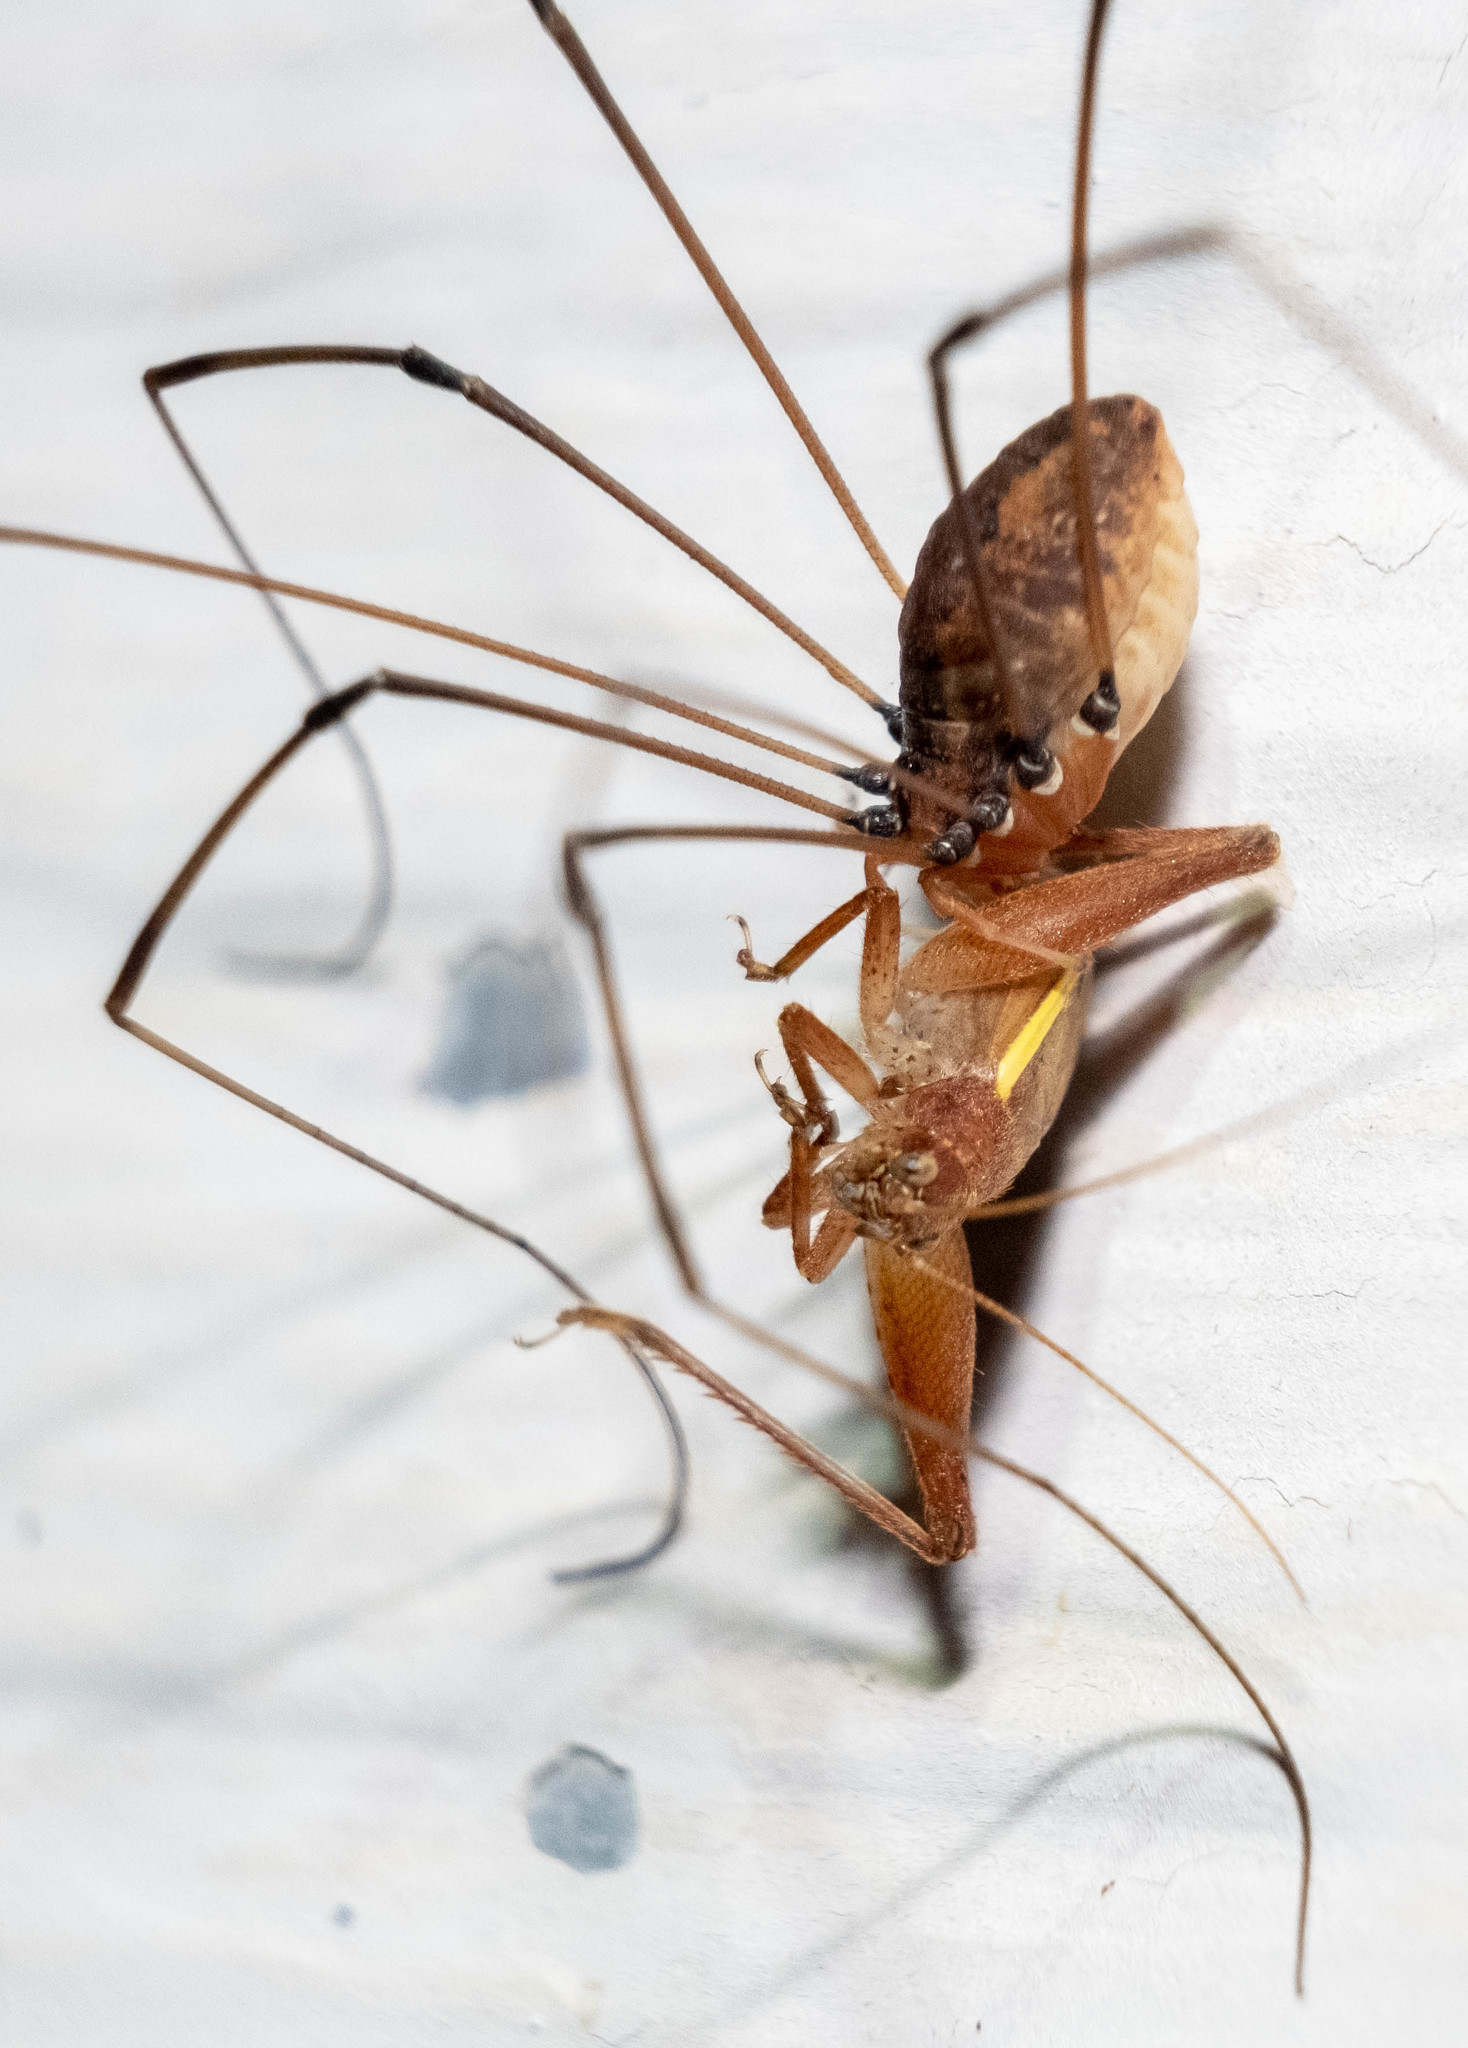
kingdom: Animalia
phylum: Arthropoda
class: Insecta
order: Orthoptera
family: Gryllidae
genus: Hapithus
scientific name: Hapithus agitator
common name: Restless bush cricket
